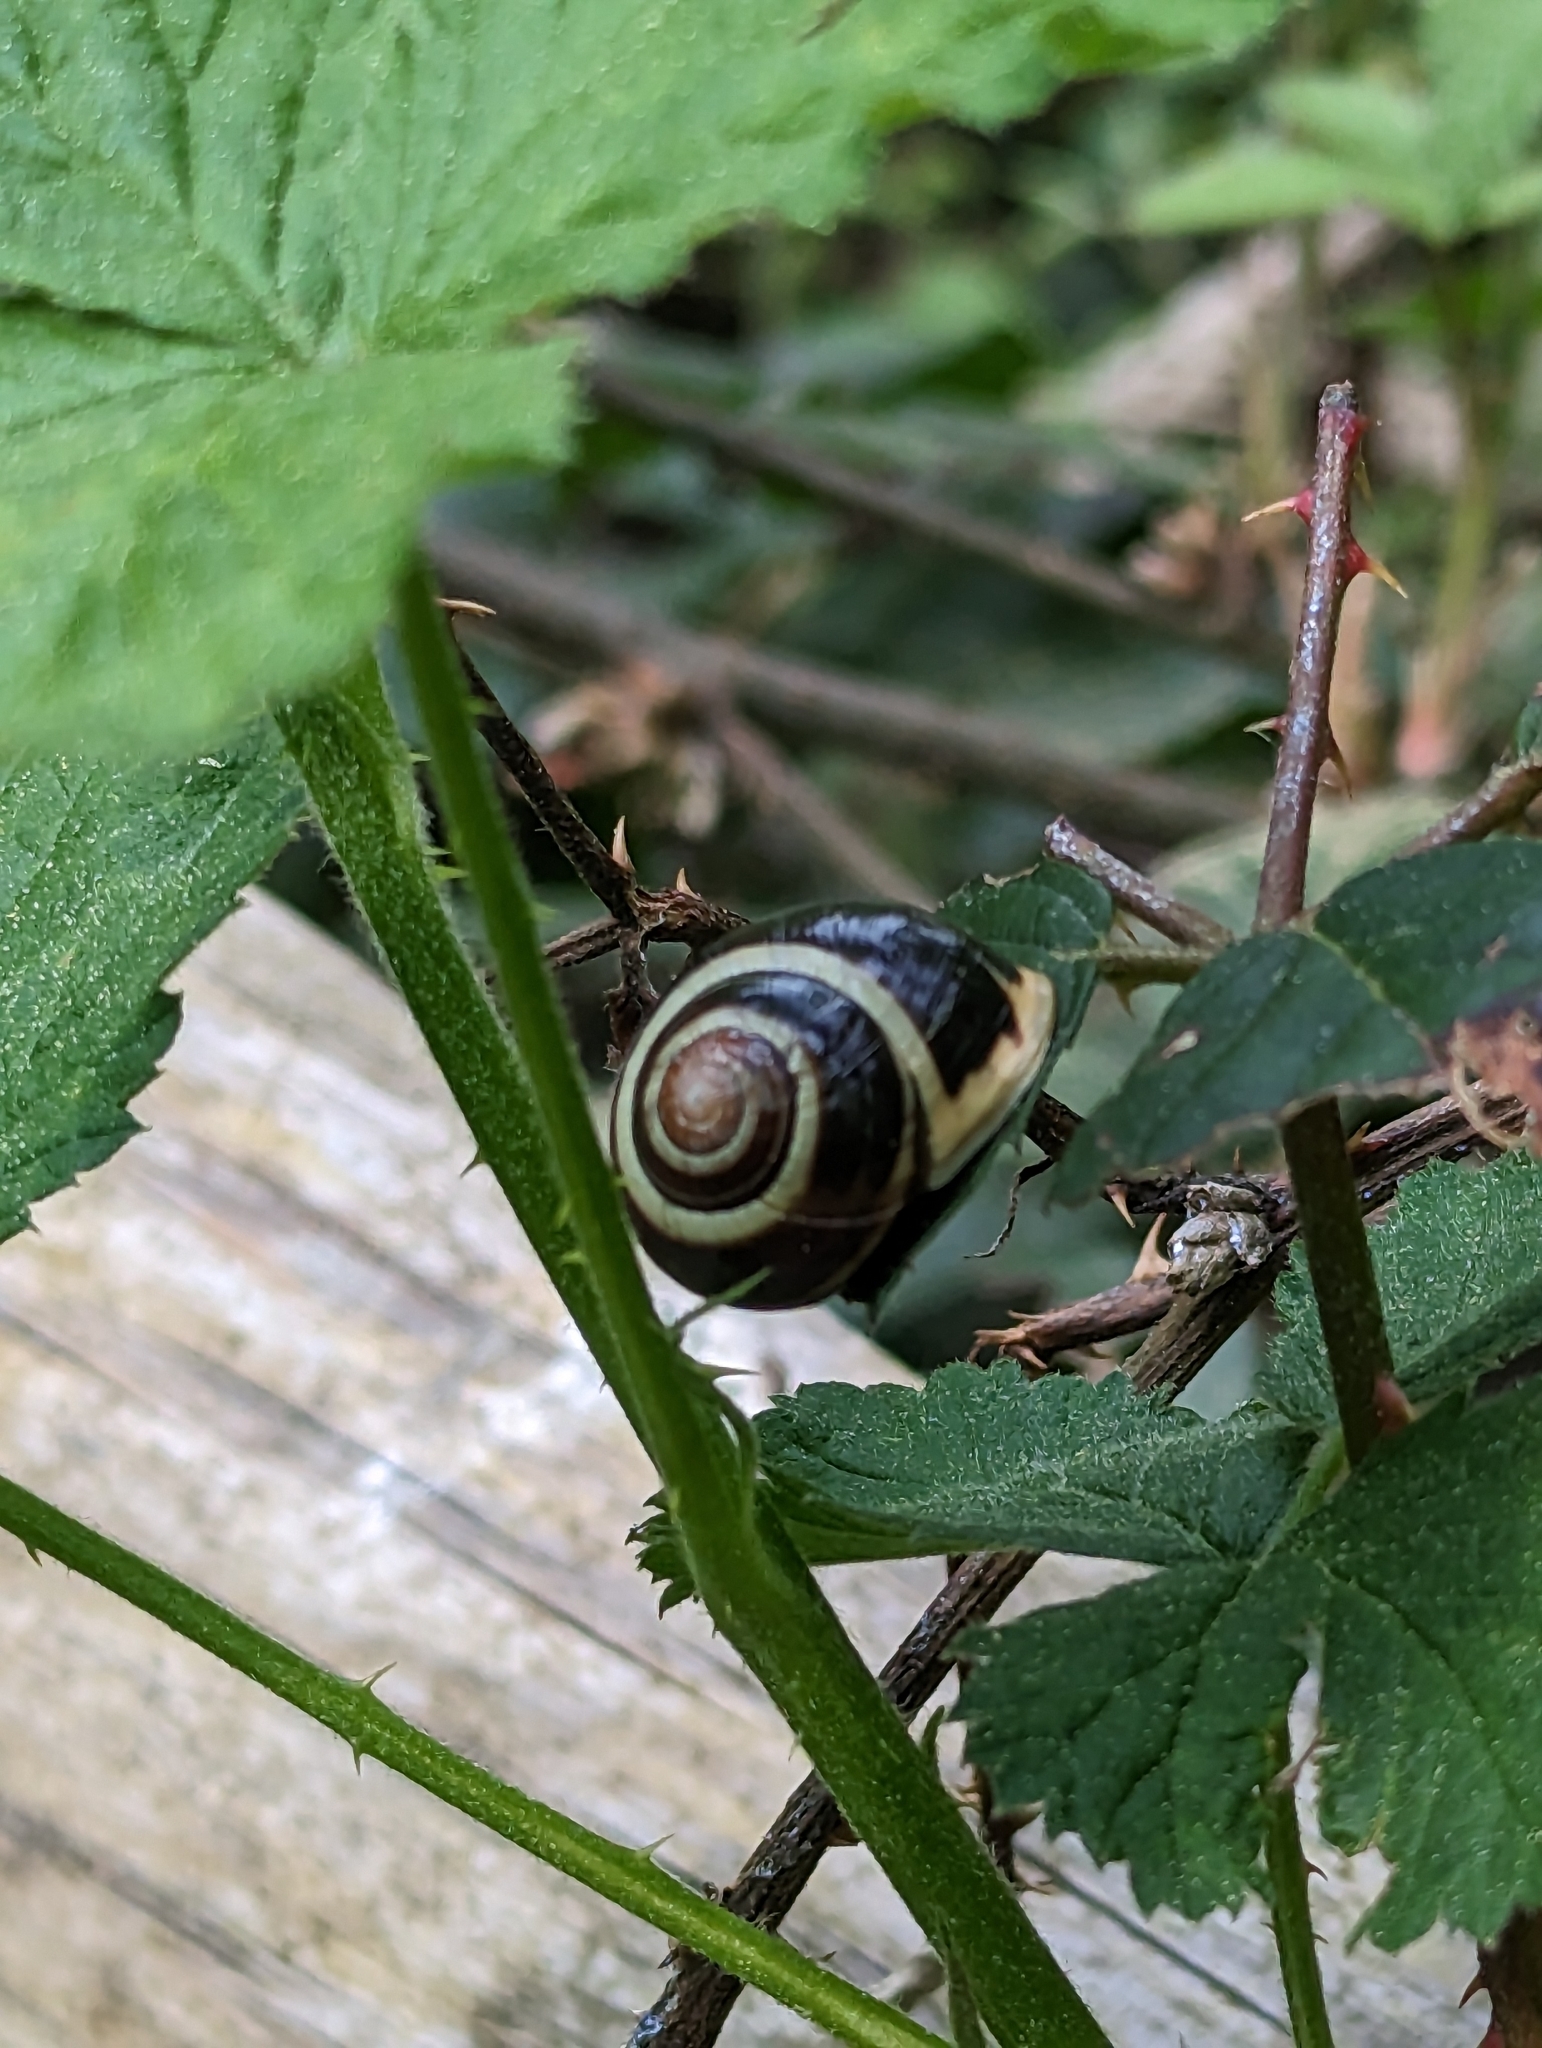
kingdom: Animalia
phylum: Mollusca
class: Gastropoda
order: Stylommatophora
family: Helicidae
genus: Cepaea
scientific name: Cepaea hortensis
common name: White-lip gardensnail
